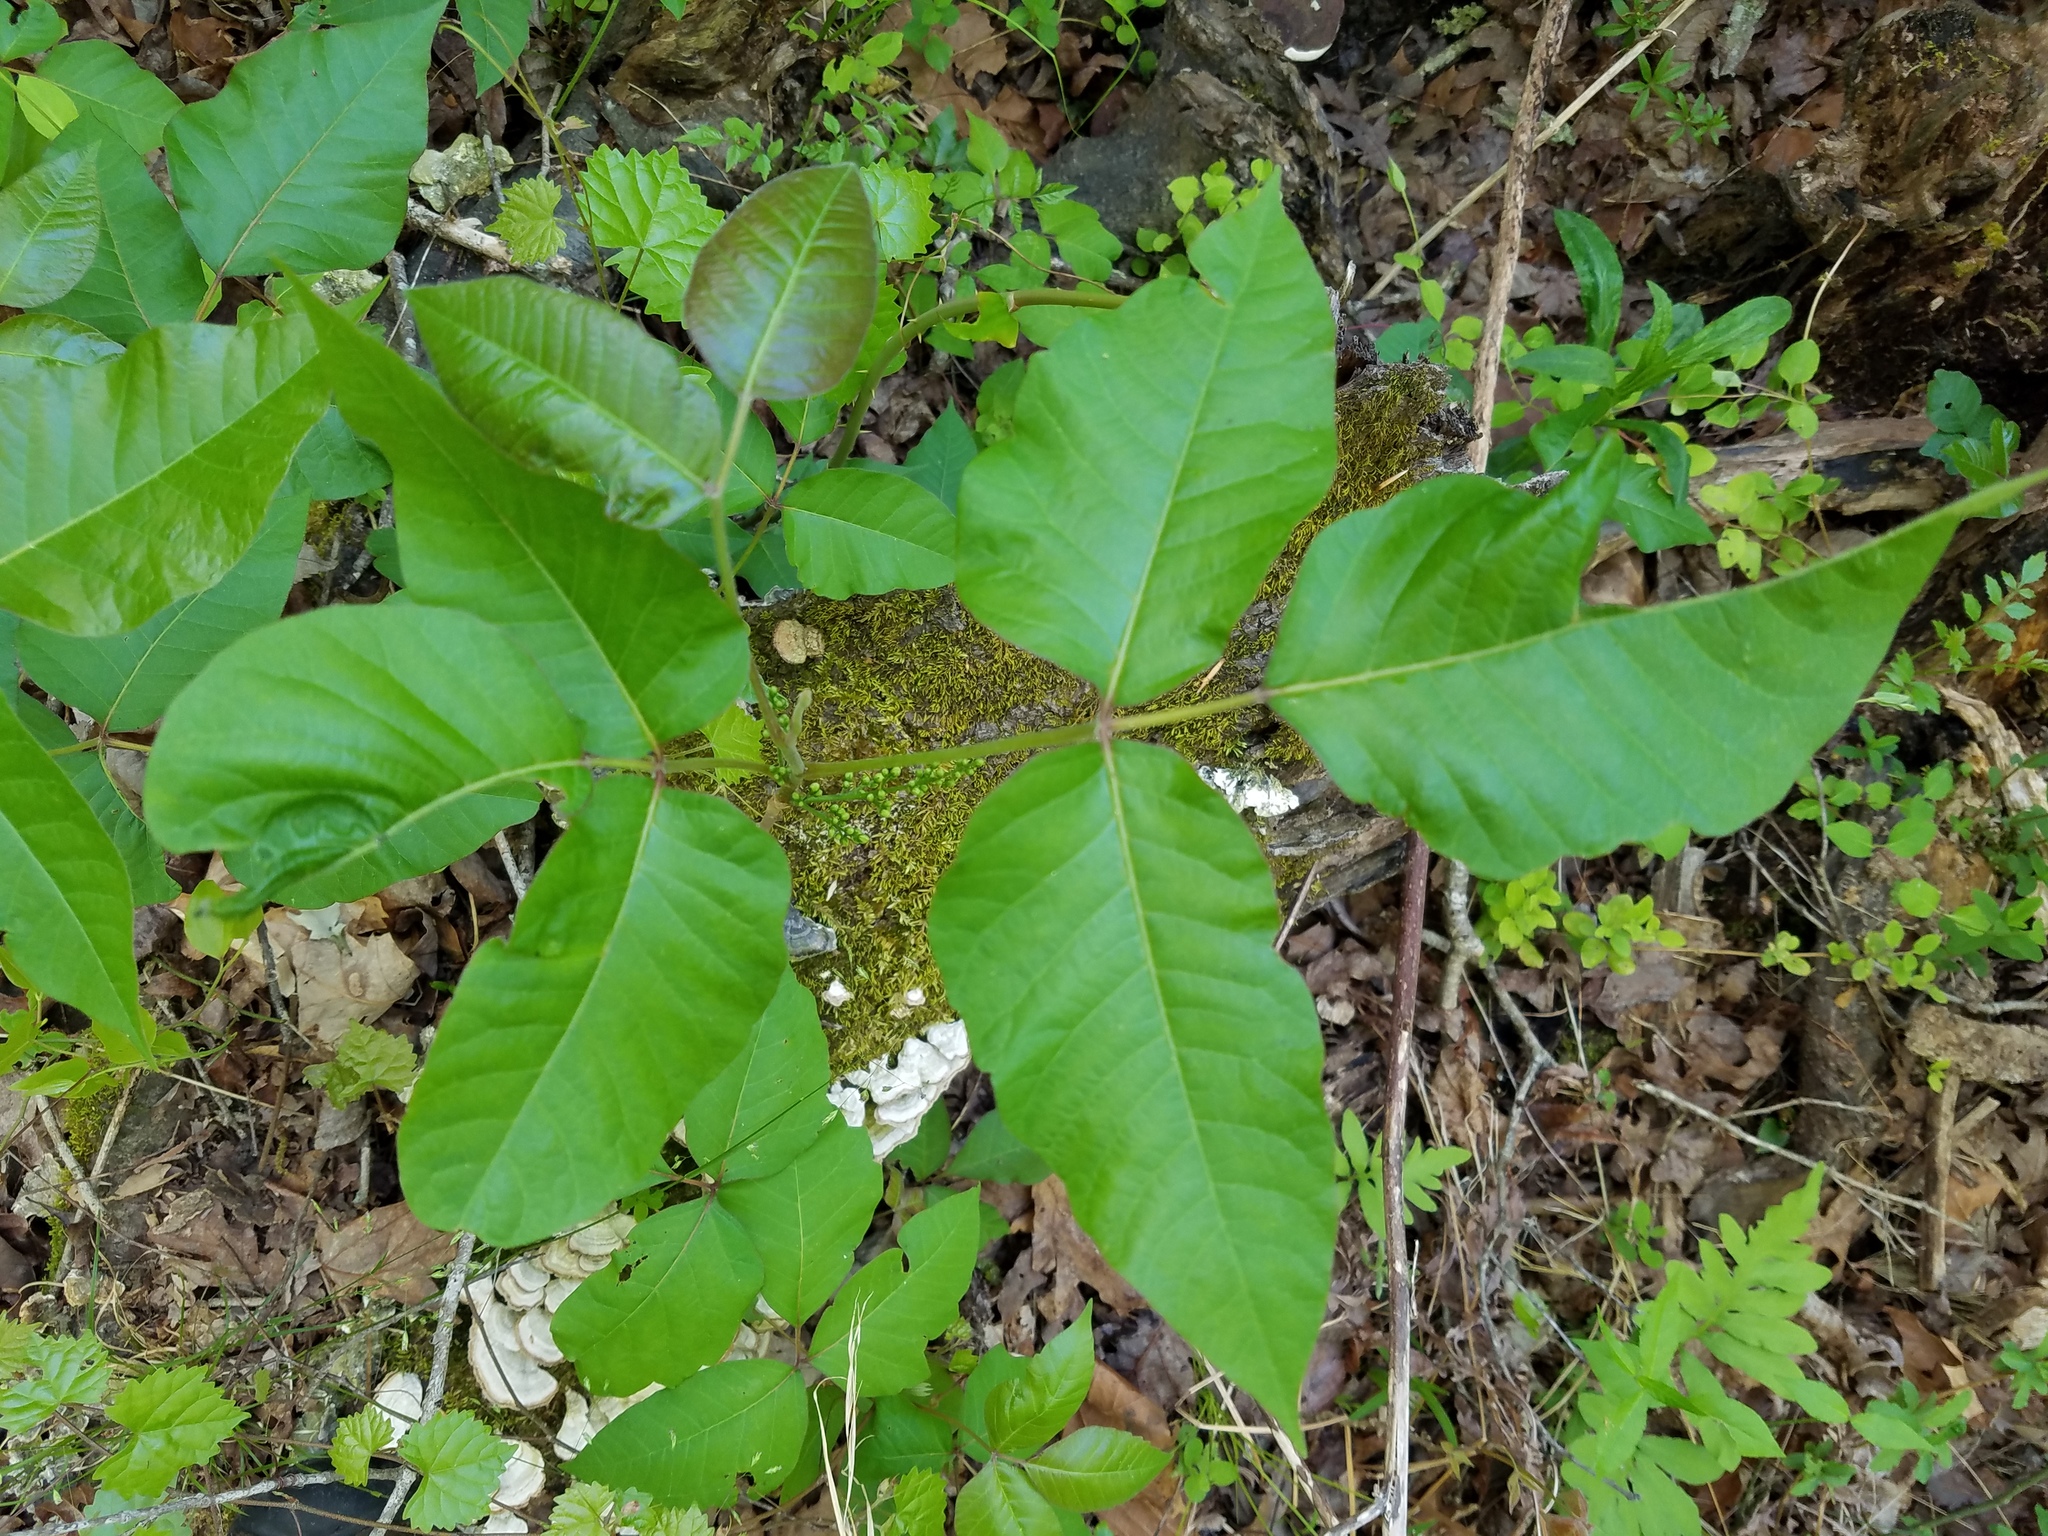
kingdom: Plantae
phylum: Tracheophyta
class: Magnoliopsida
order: Sapindales
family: Anacardiaceae
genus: Toxicodendron
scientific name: Toxicodendron radicans
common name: Poison ivy
